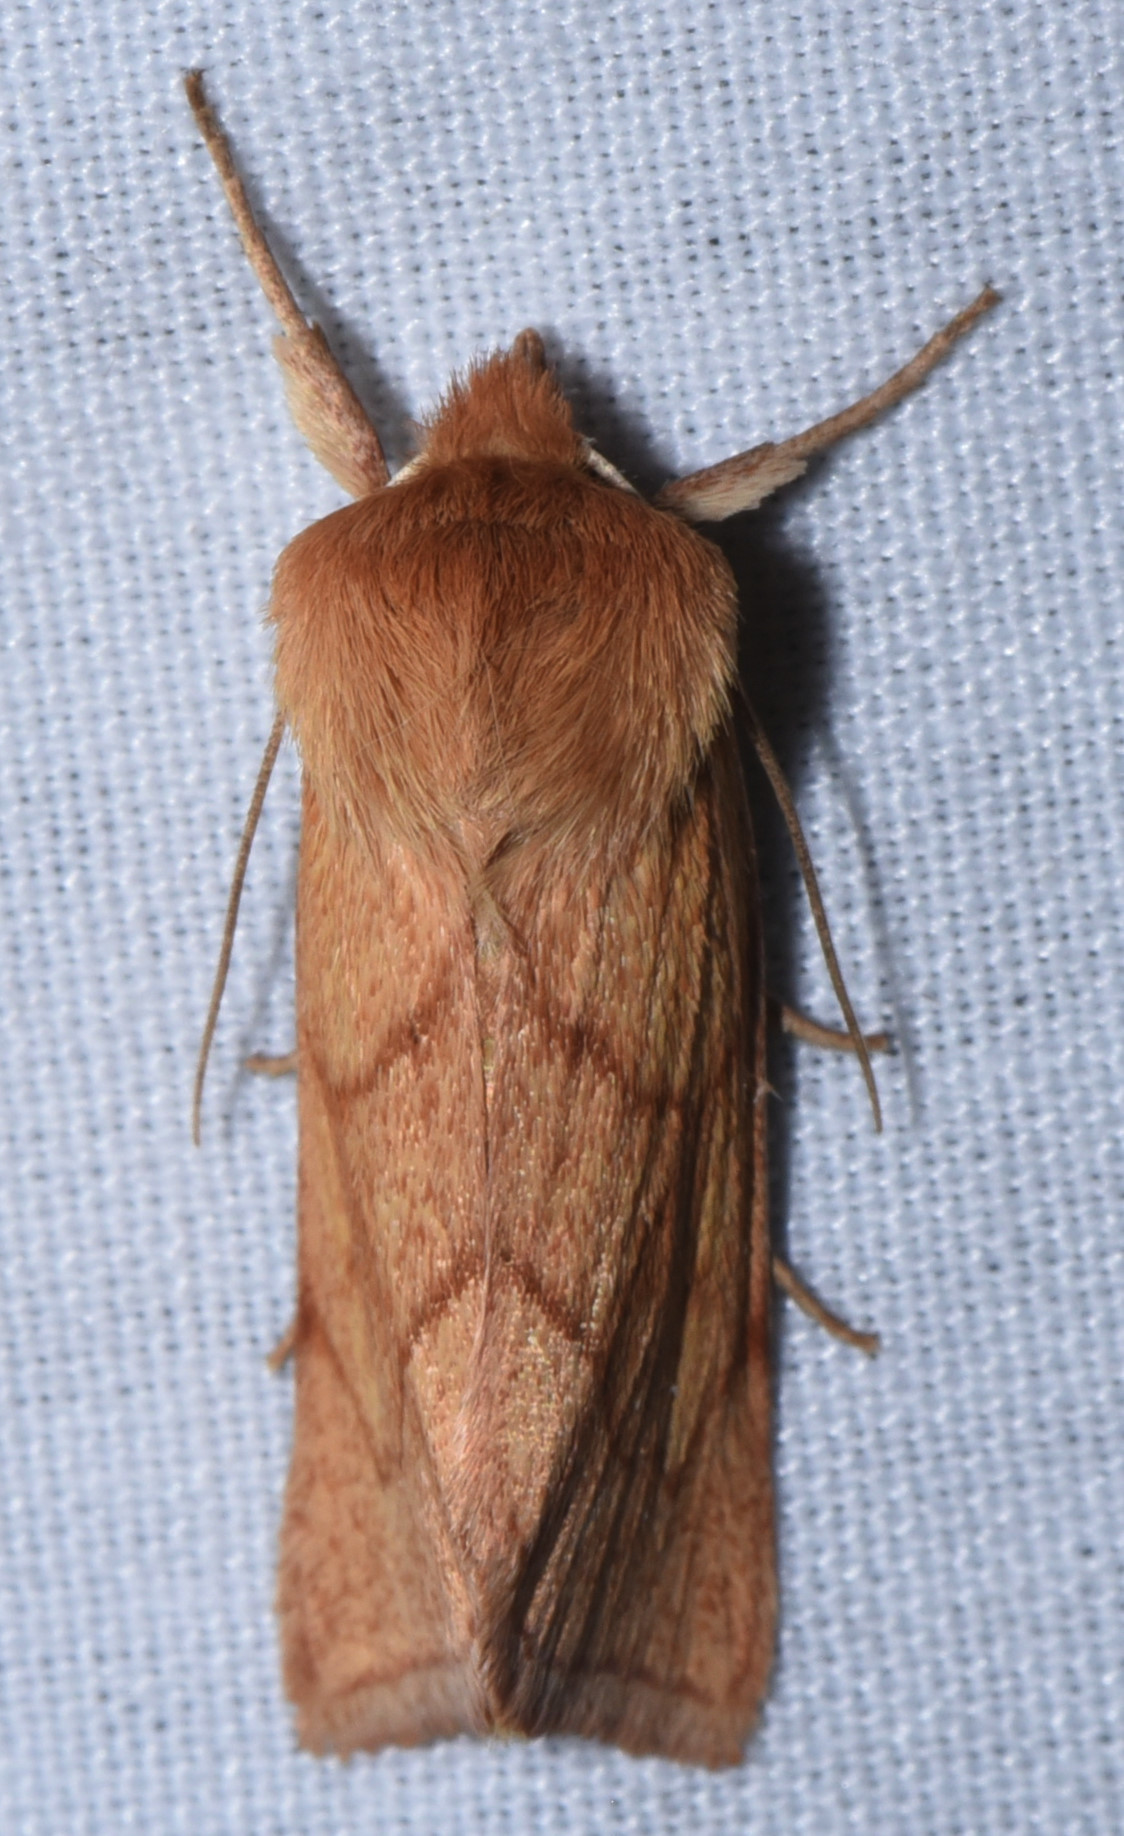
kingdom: Animalia
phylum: Arthropoda
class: Insecta
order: Lepidoptera
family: Lasiocampidae
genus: Malacosoma
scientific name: Malacosoma disstria
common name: Forest tent caterpillar
